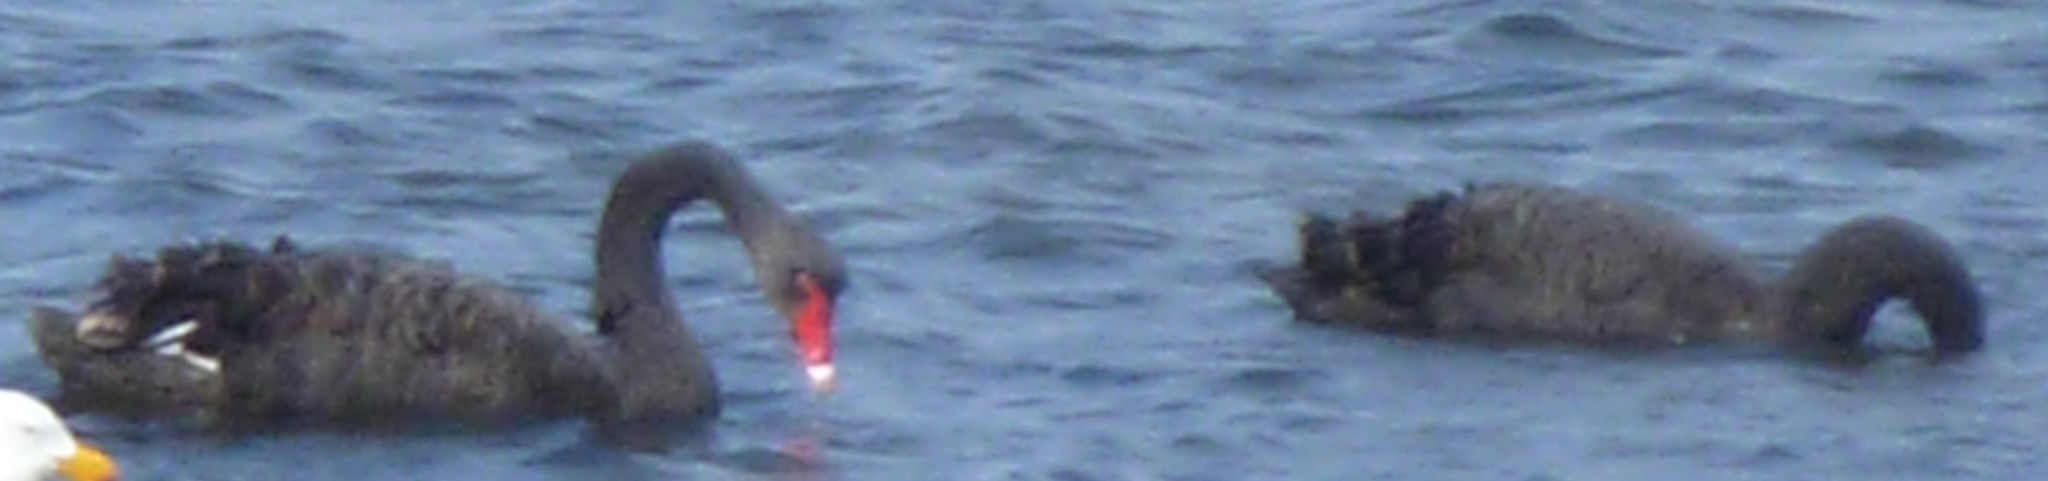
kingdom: Animalia
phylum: Chordata
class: Aves
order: Anseriformes
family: Anatidae
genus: Cygnus
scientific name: Cygnus atratus
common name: Black swan
